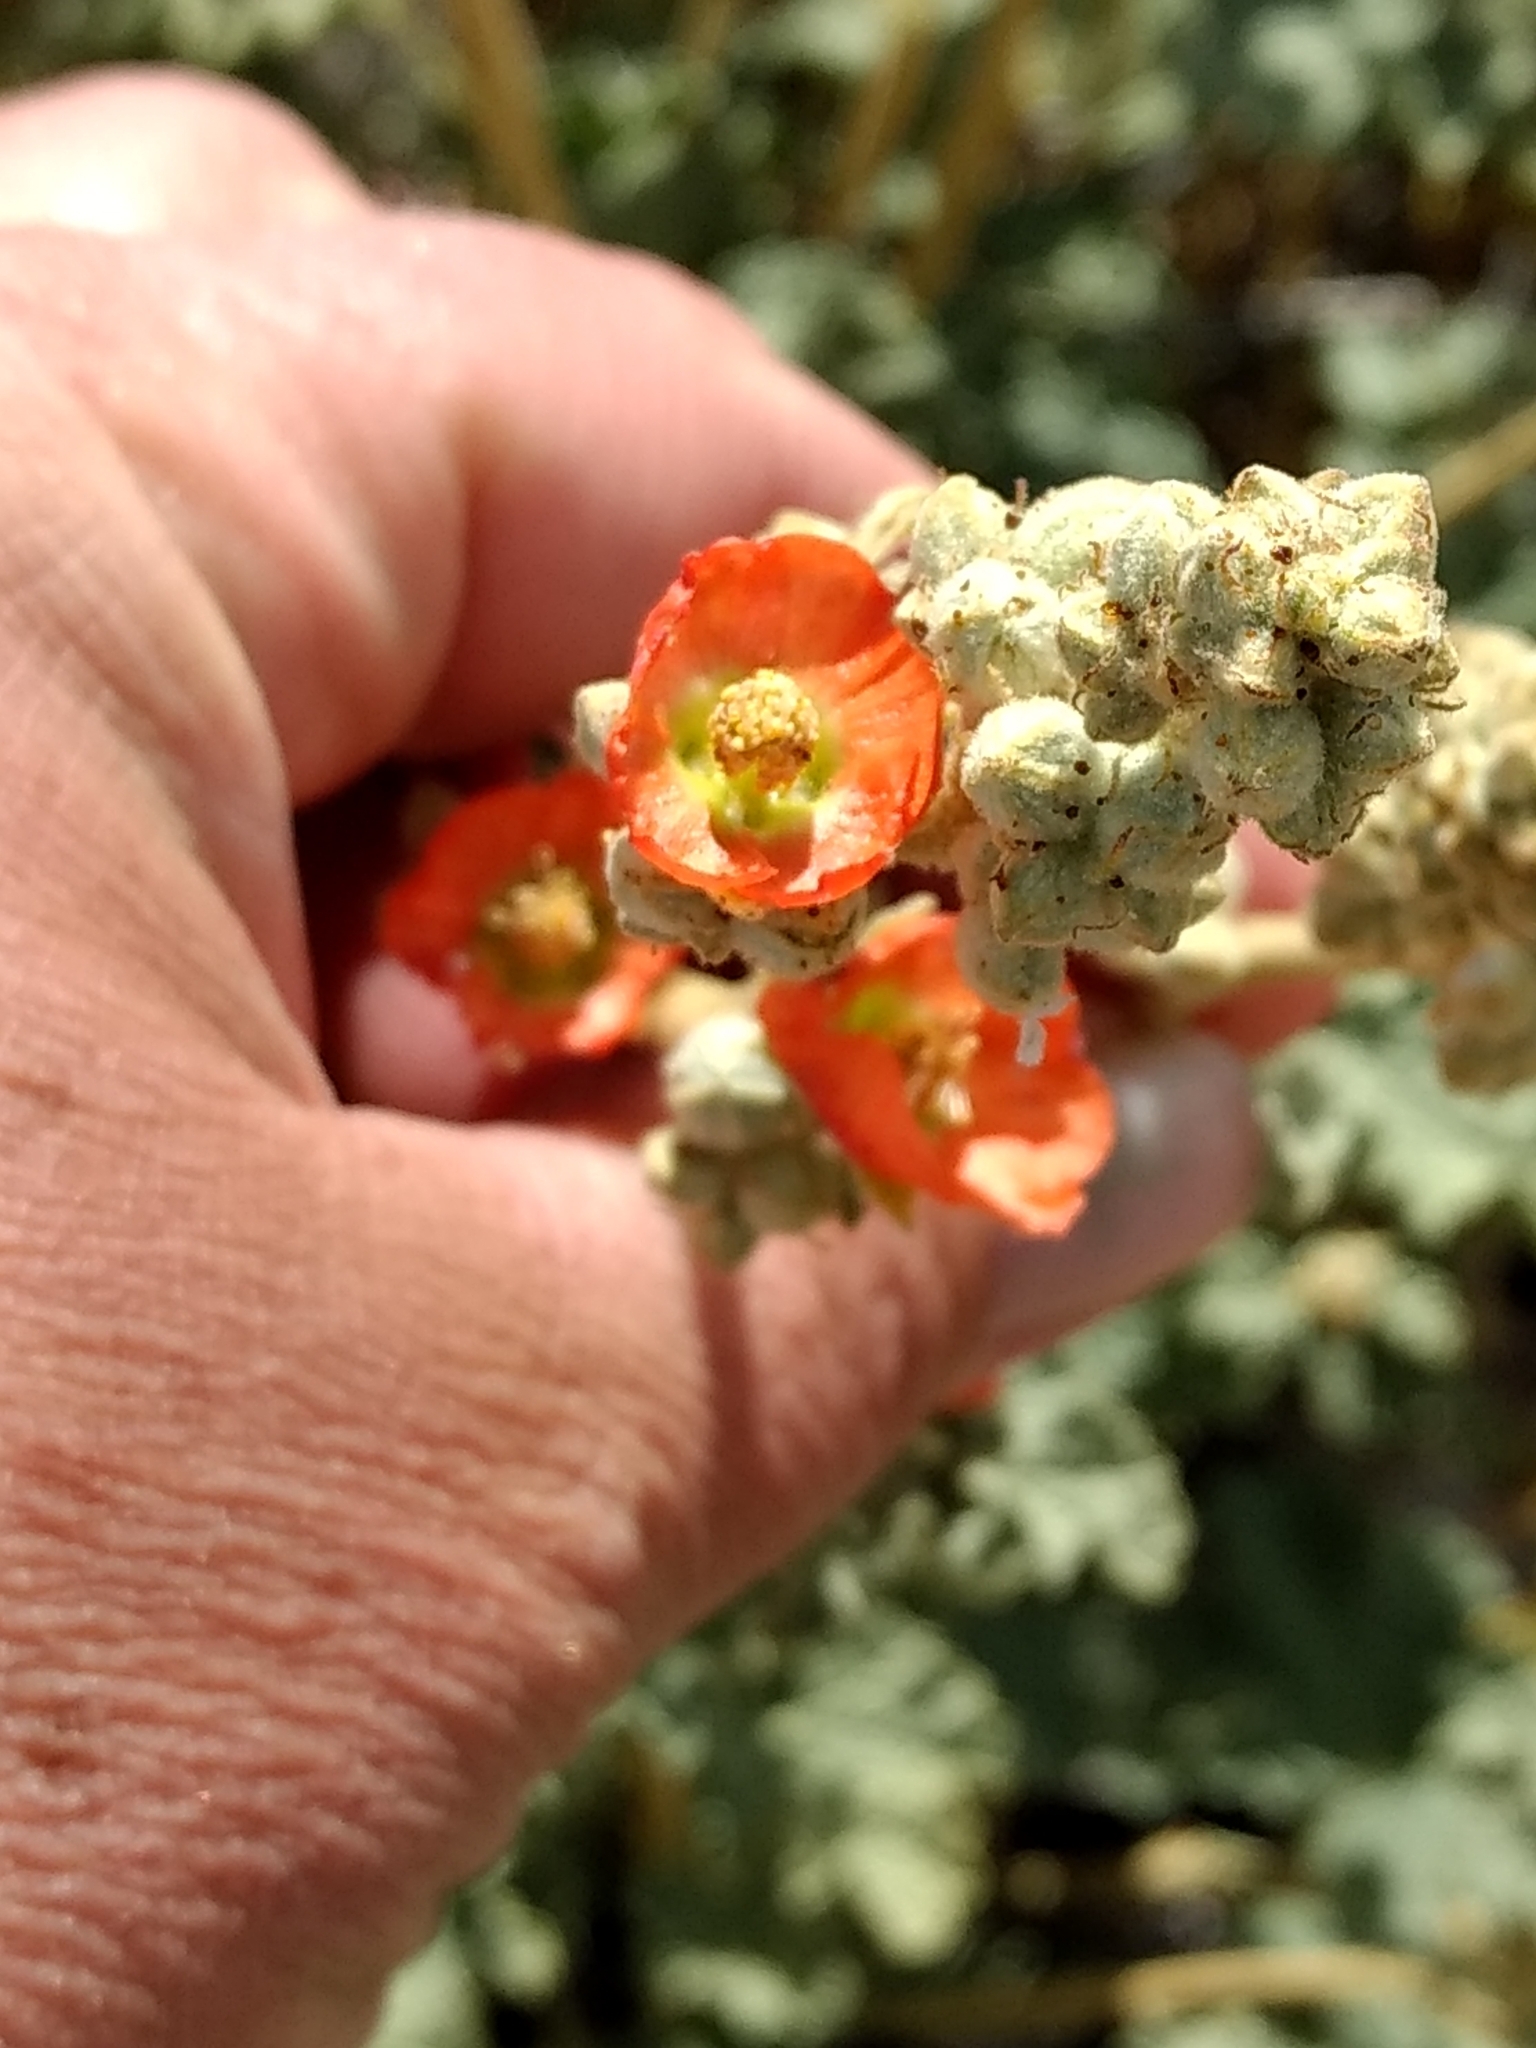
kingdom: Plantae
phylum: Tracheophyta
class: Magnoliopsida
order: Malvales
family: Malvaceae
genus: Sphaeralcea
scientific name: Sphaeralcea ambigua
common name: Apricot globe-mallow
